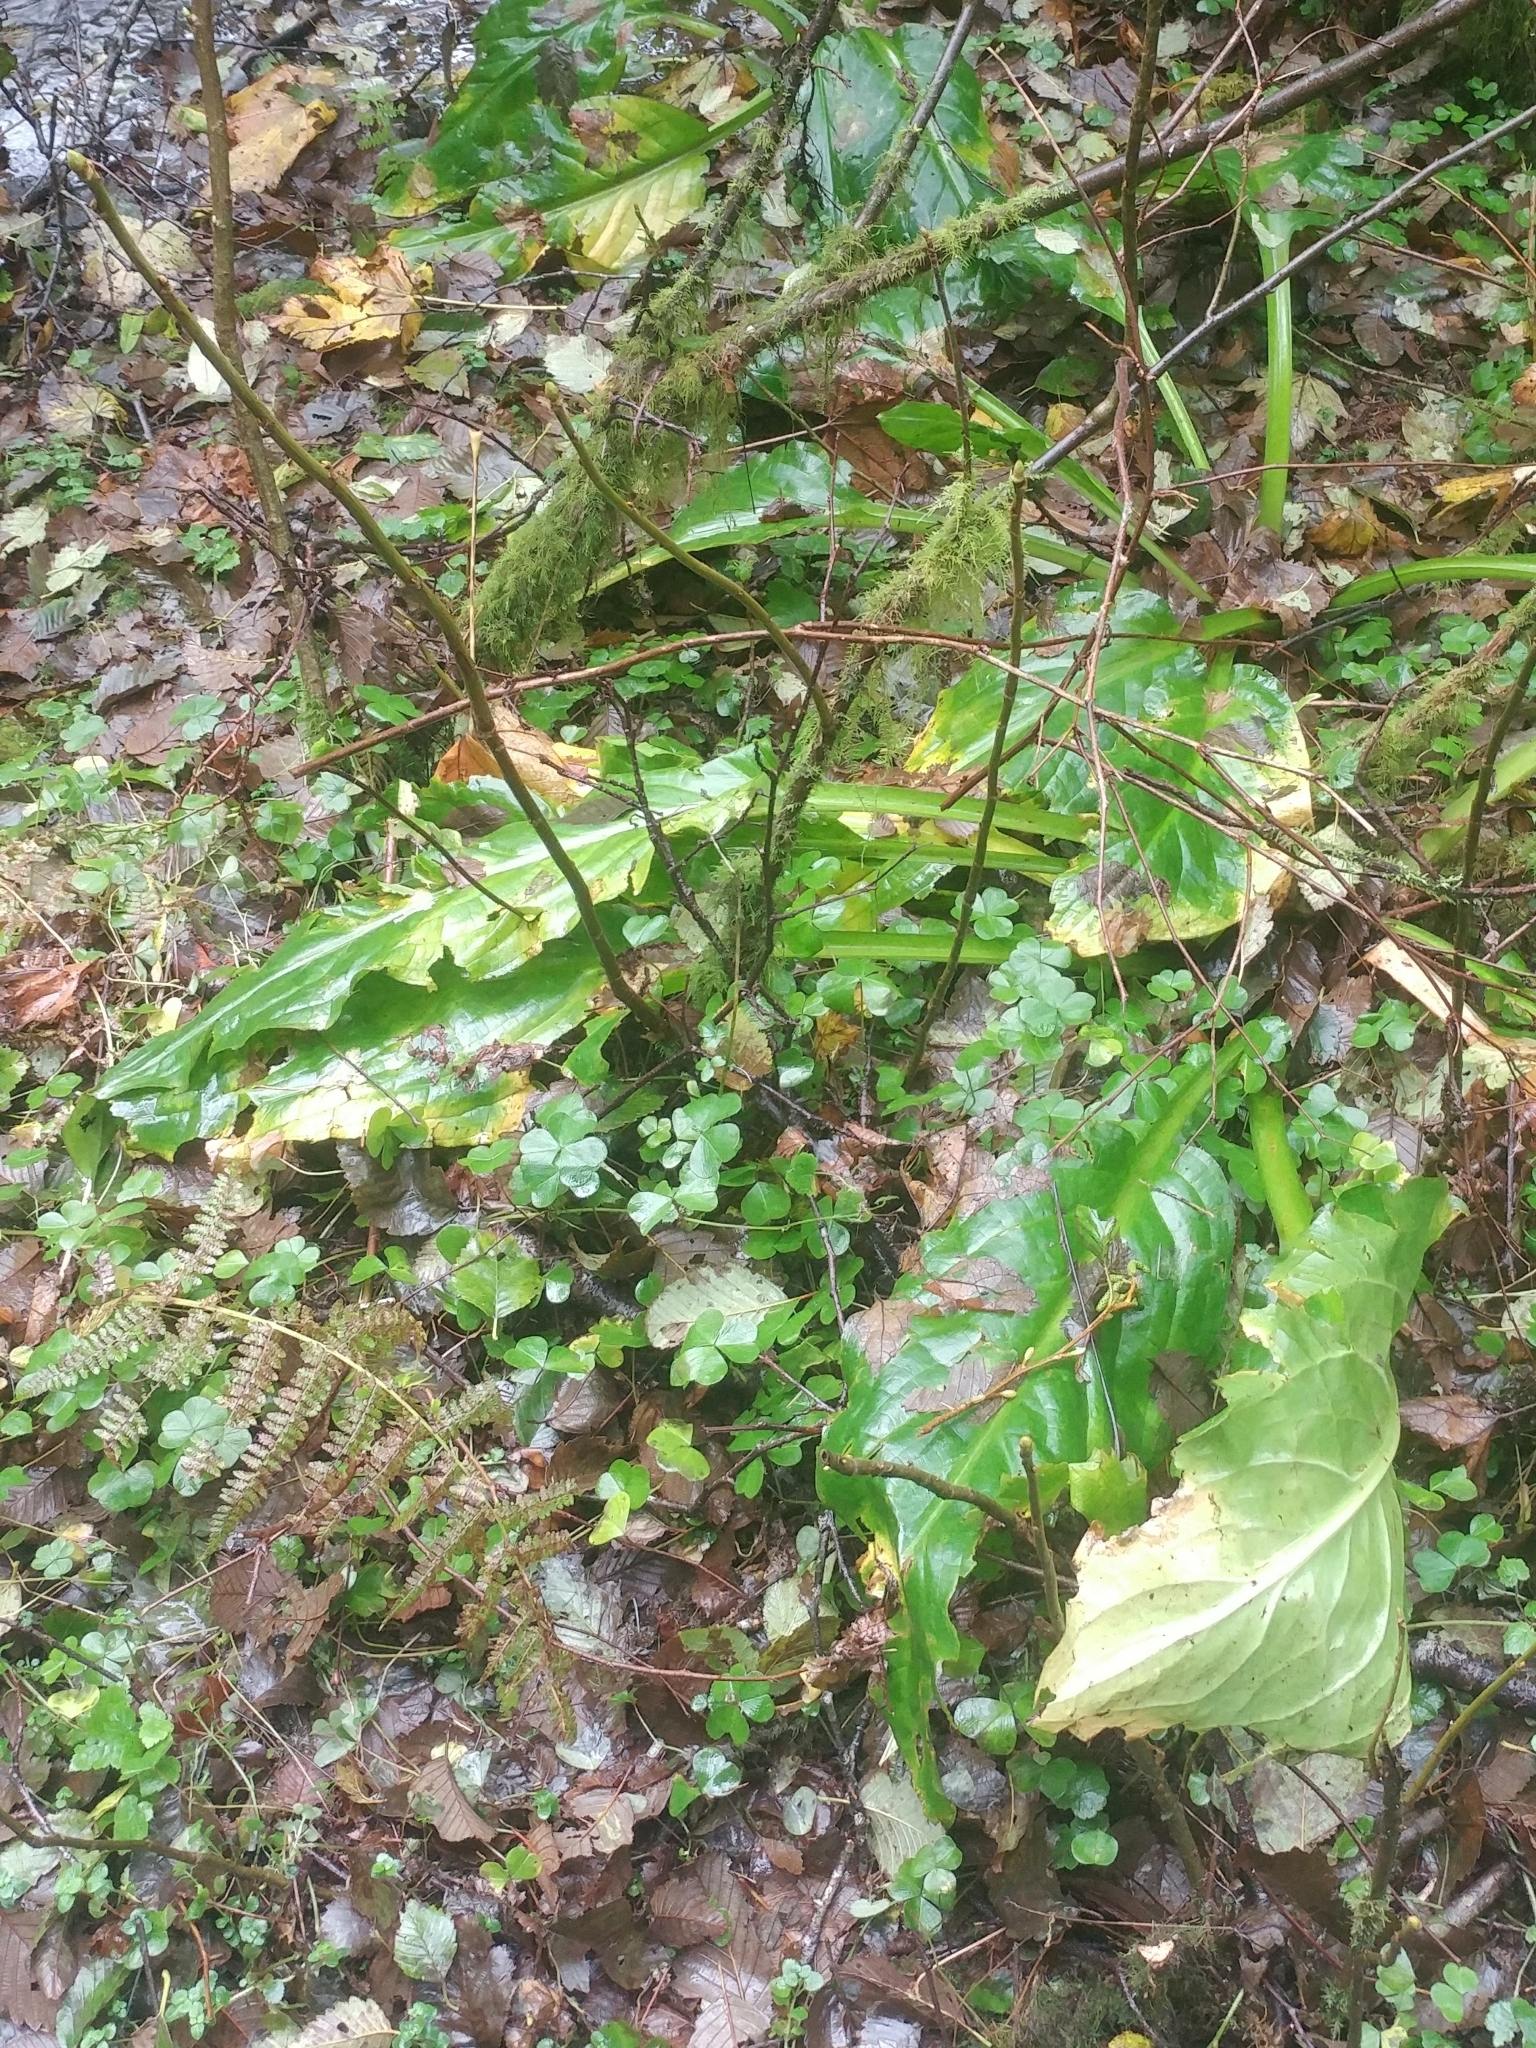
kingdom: Plantae
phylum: Tracheophyta
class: Liliopsida
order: Alismatales
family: Araceae
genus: Lysichiton
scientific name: Lysichiton americanus
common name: American skunk cabbage
